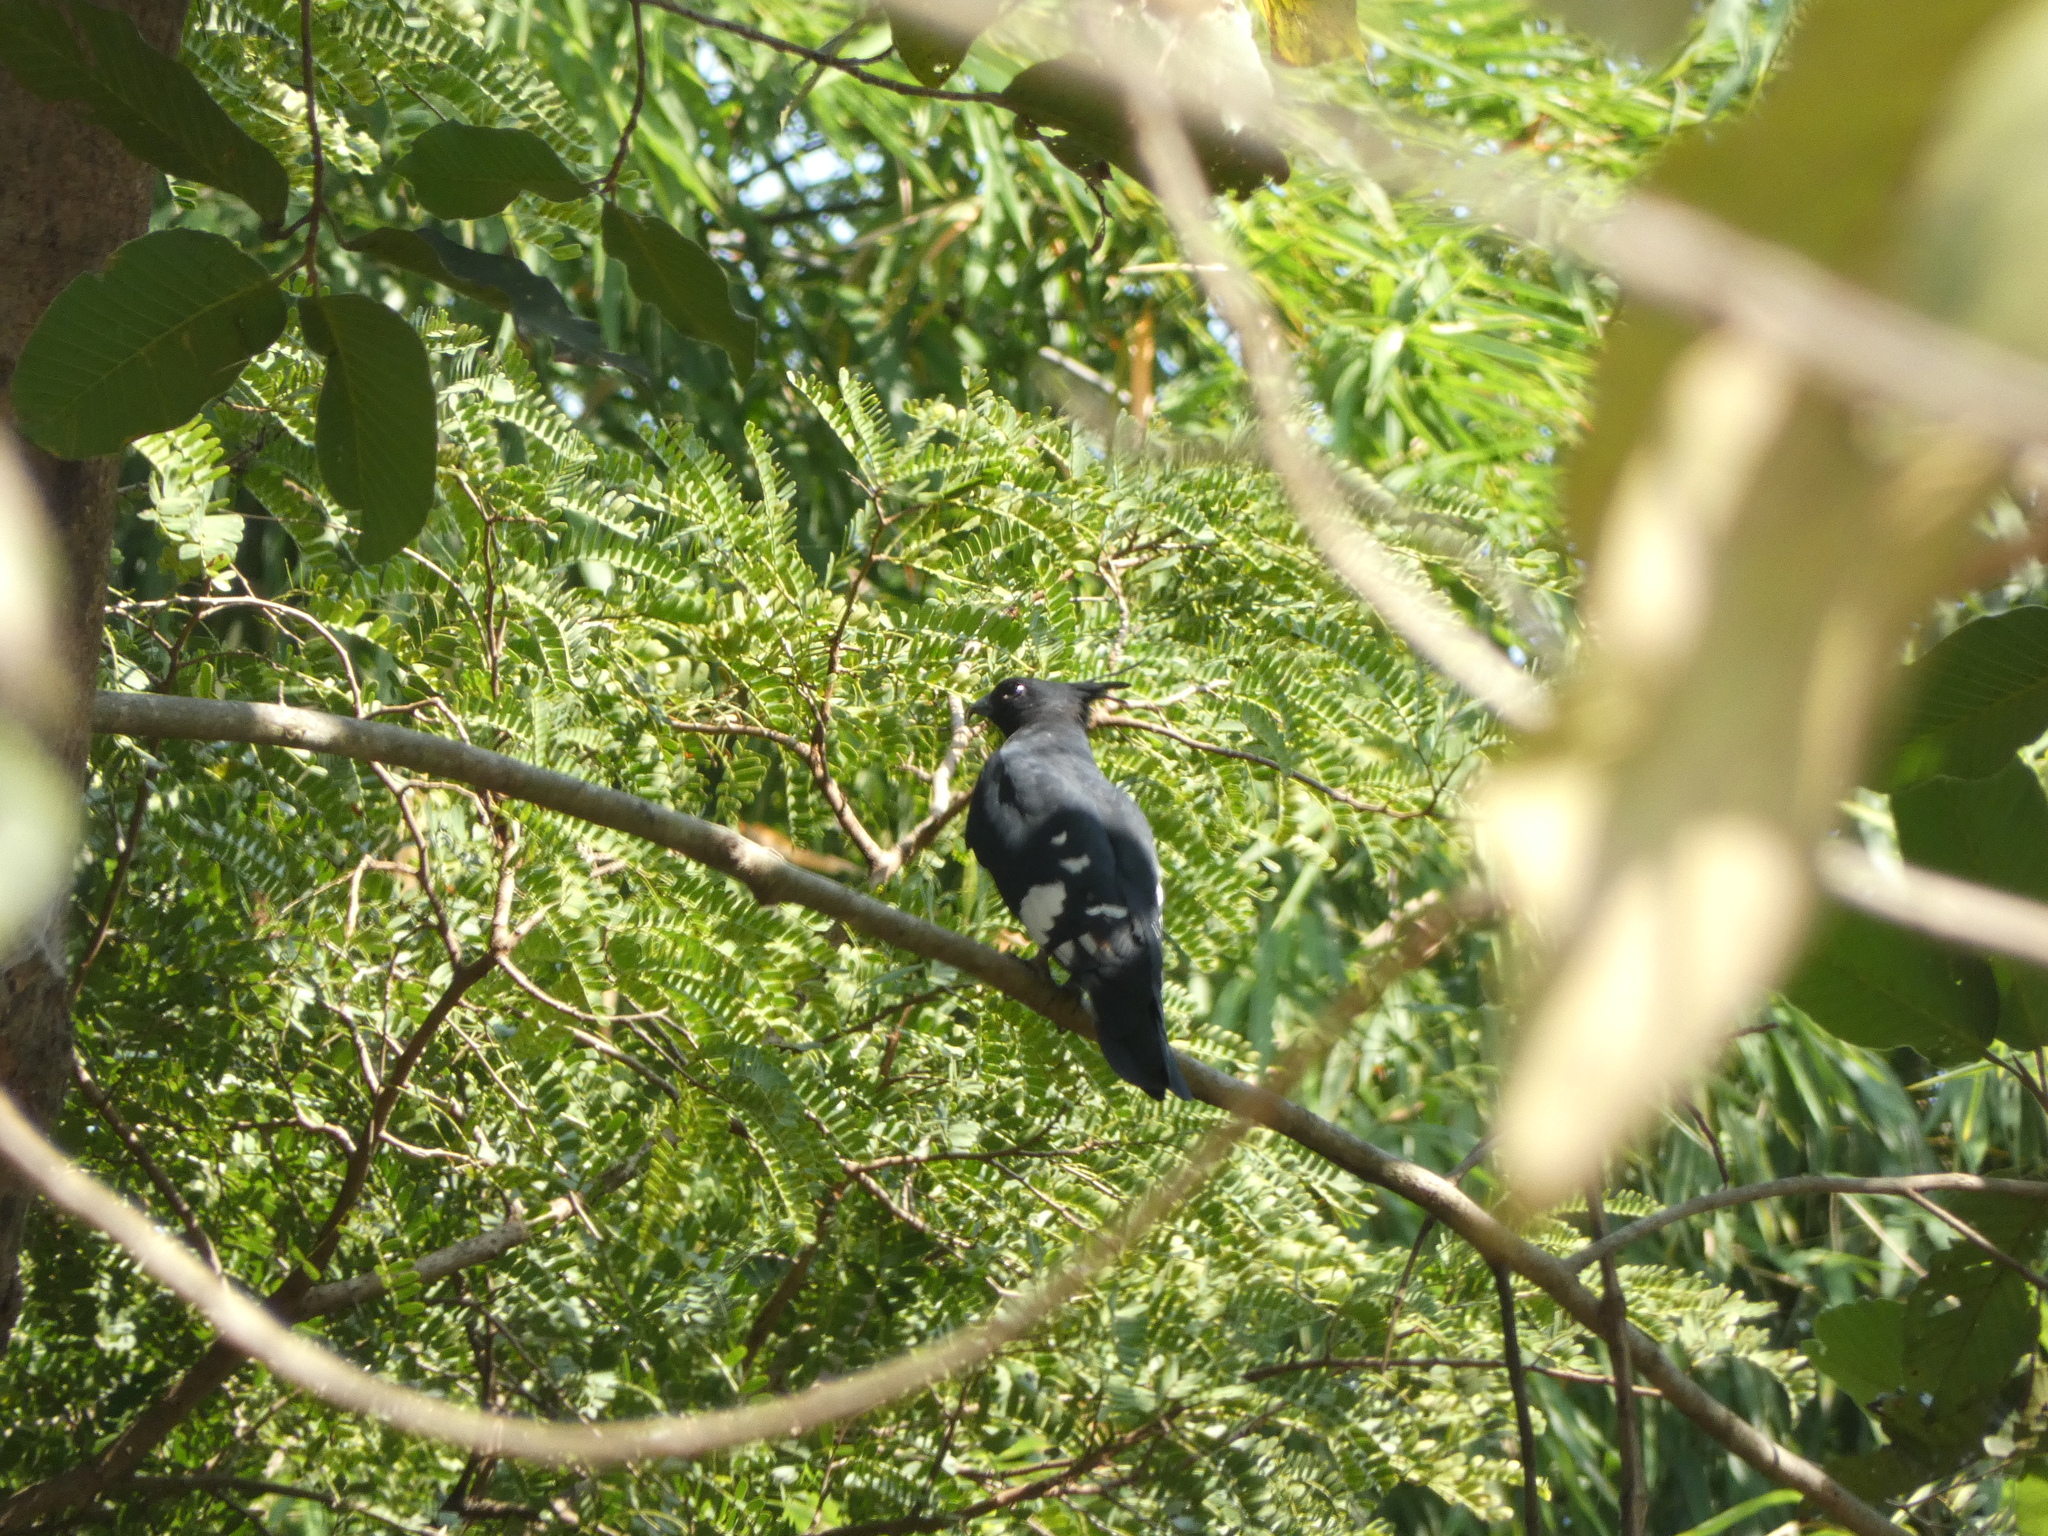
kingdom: Animalia
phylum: Chordata
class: Aves
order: Accipitriformes
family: Accipitridae
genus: Aviceda
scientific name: Aviceda leuphotes
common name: Black baza
